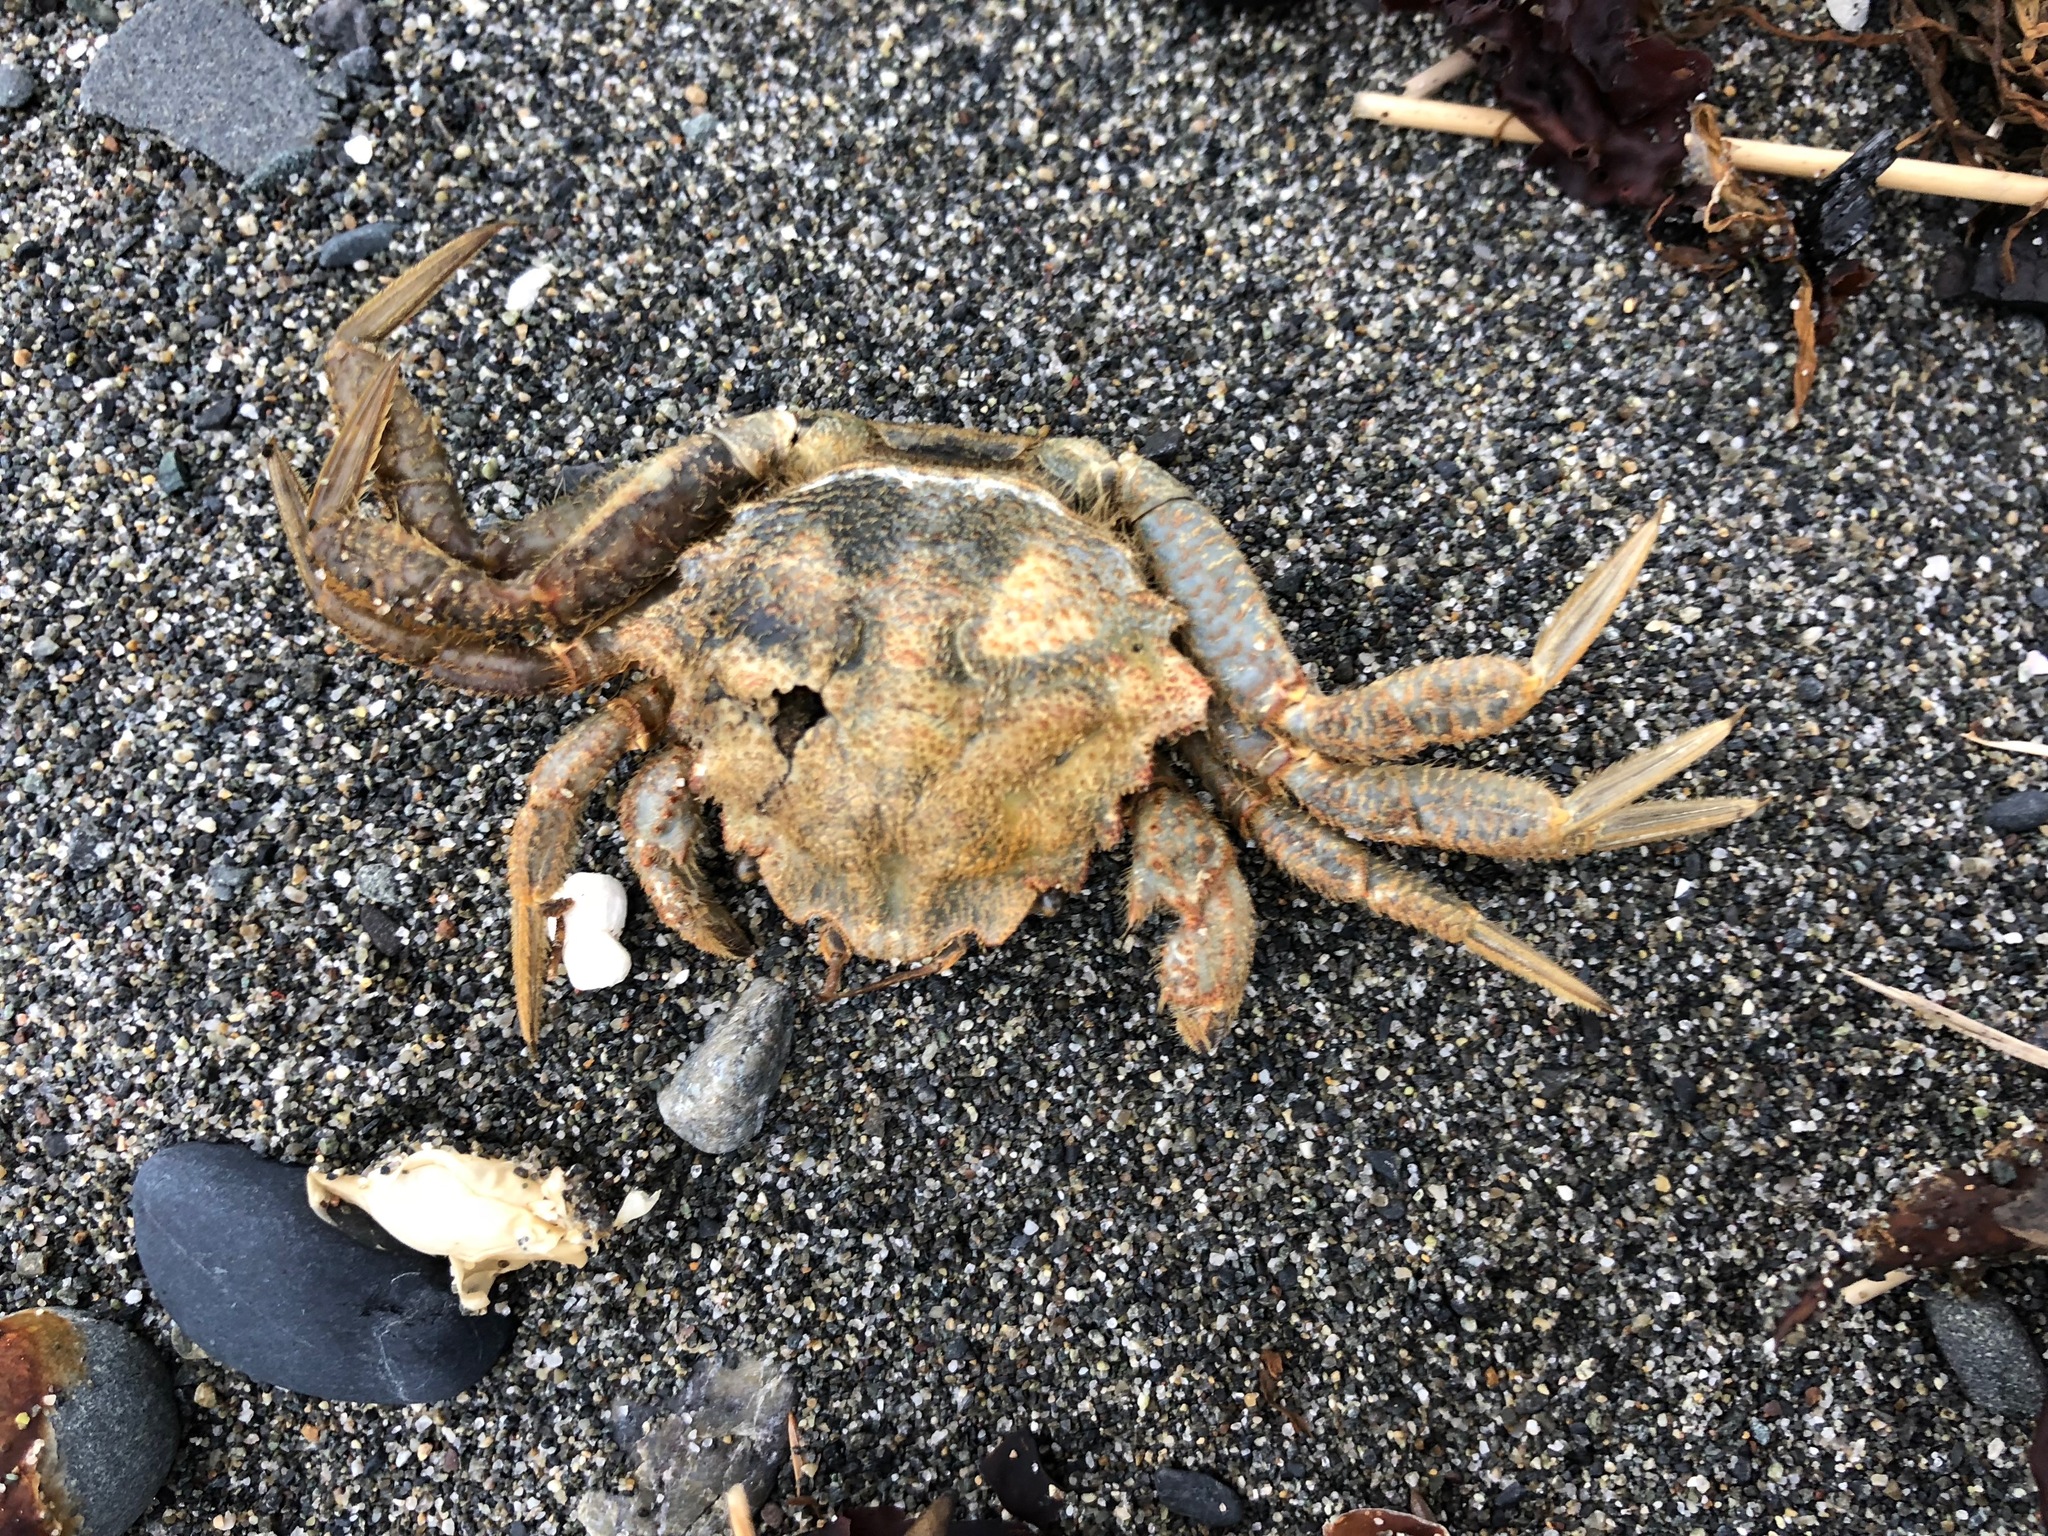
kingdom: Animalia
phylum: Arthropoda
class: Malacostraca
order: Decapoda
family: Cheiragonidae
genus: Telmessus
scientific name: Telmessus cheiragonus
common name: Helmet crab
